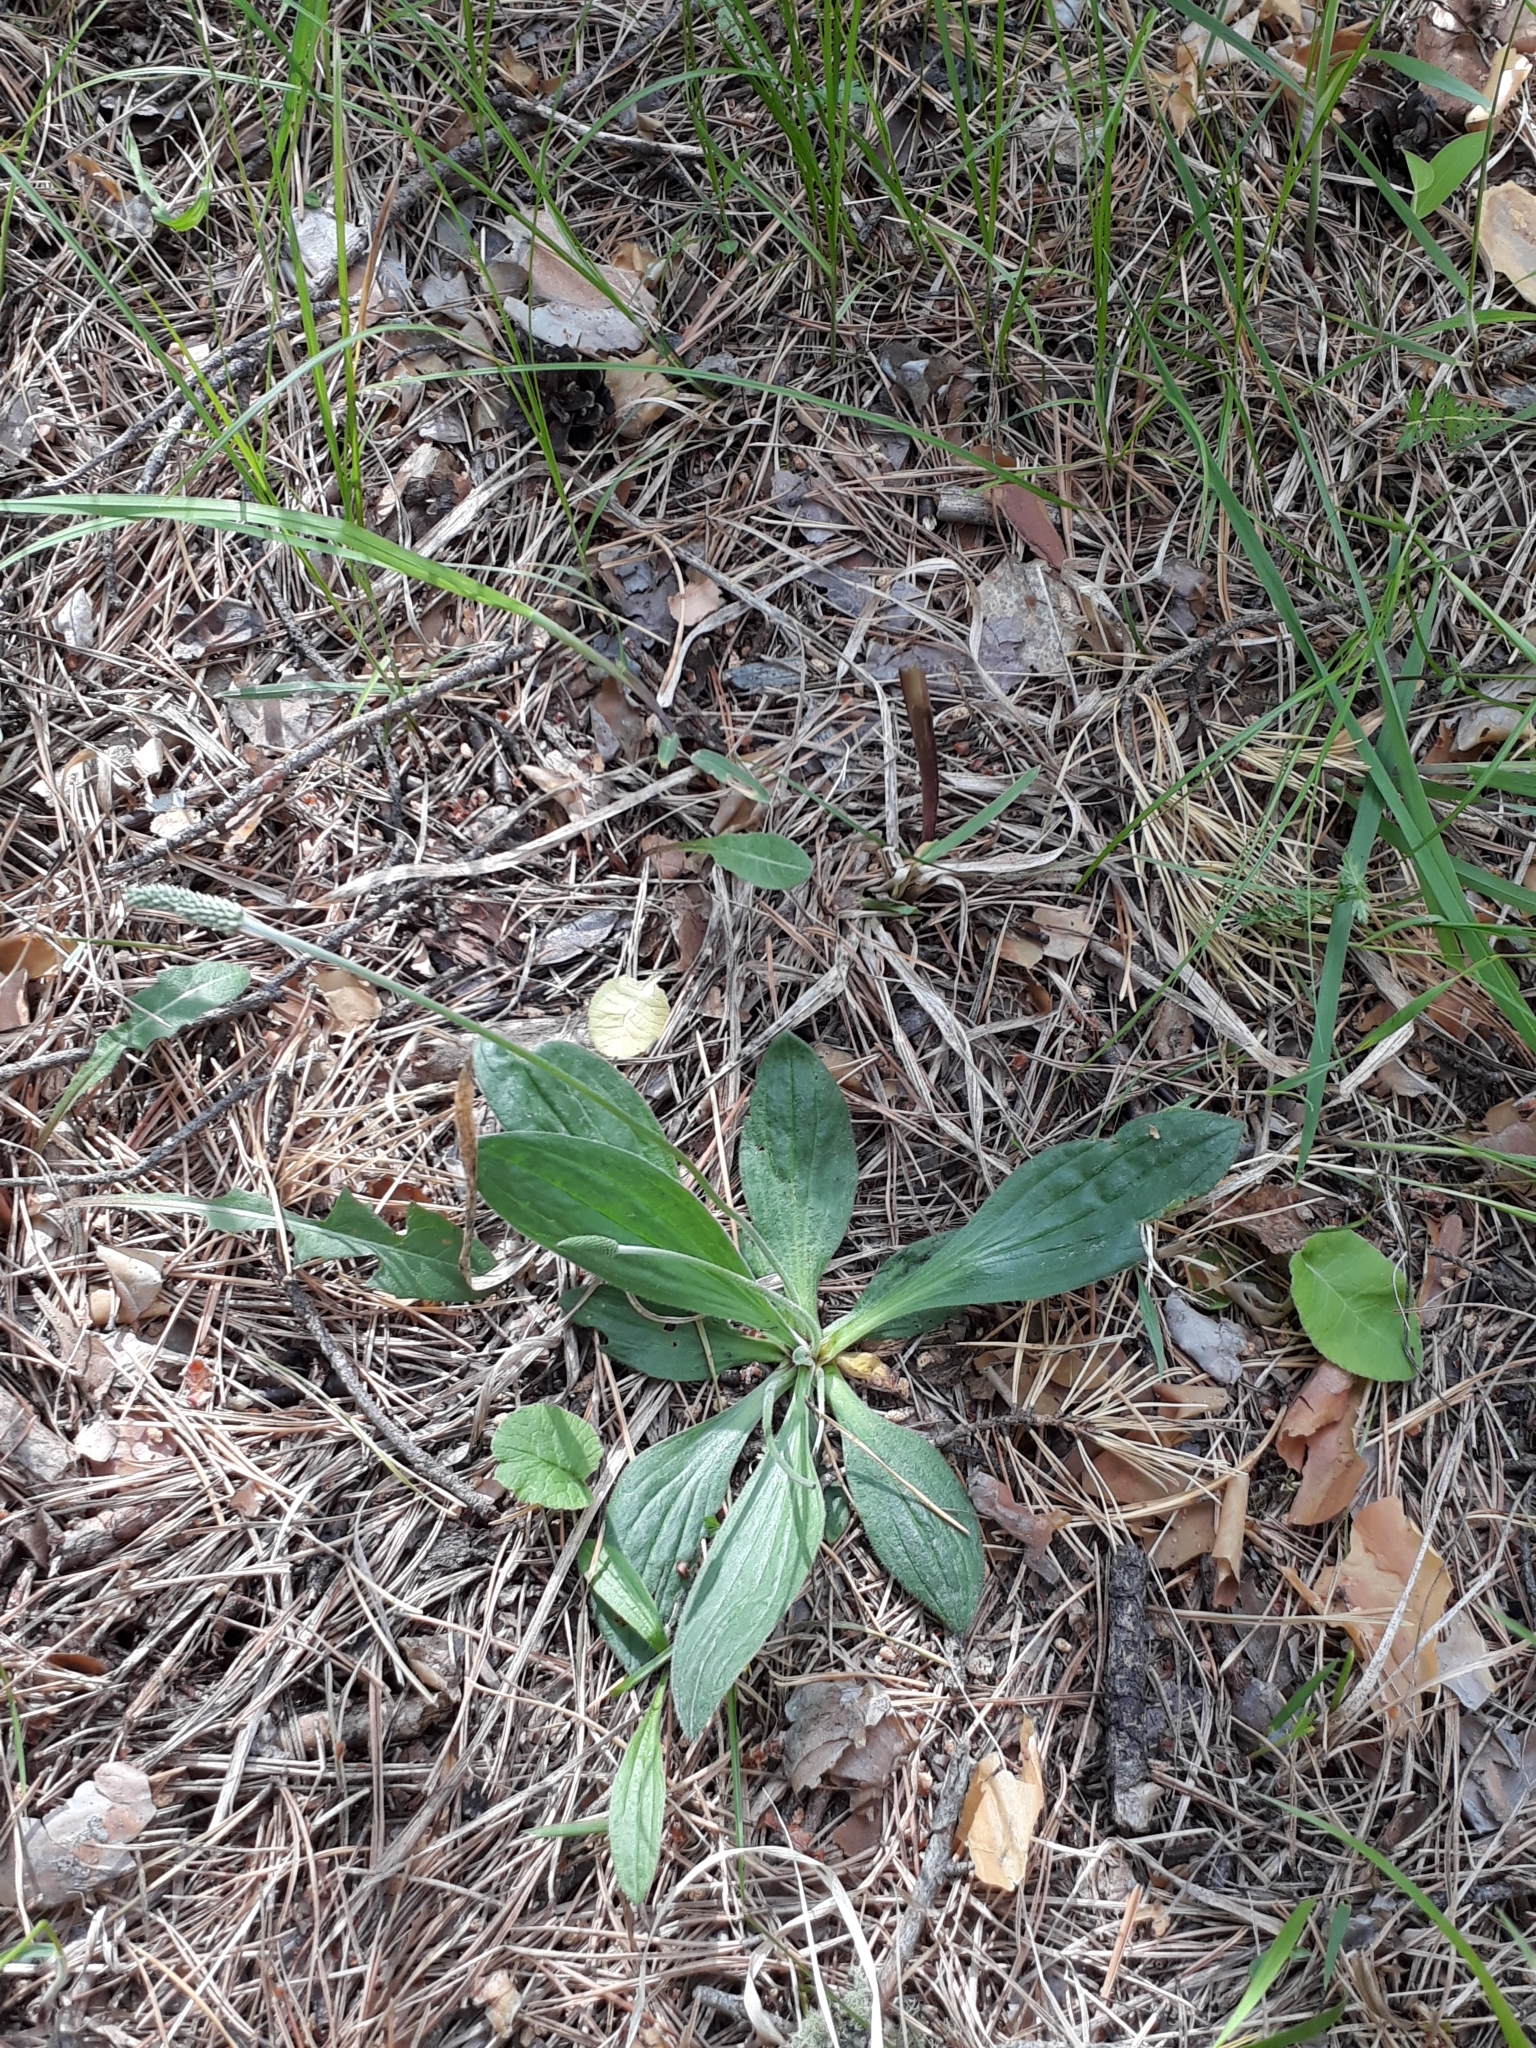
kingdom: Plantae
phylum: Tracheophyta
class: Magnoliopsida
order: Lamiales
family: Plantaginaceae
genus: Plantago
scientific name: Plantago media
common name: Hoary plantain
